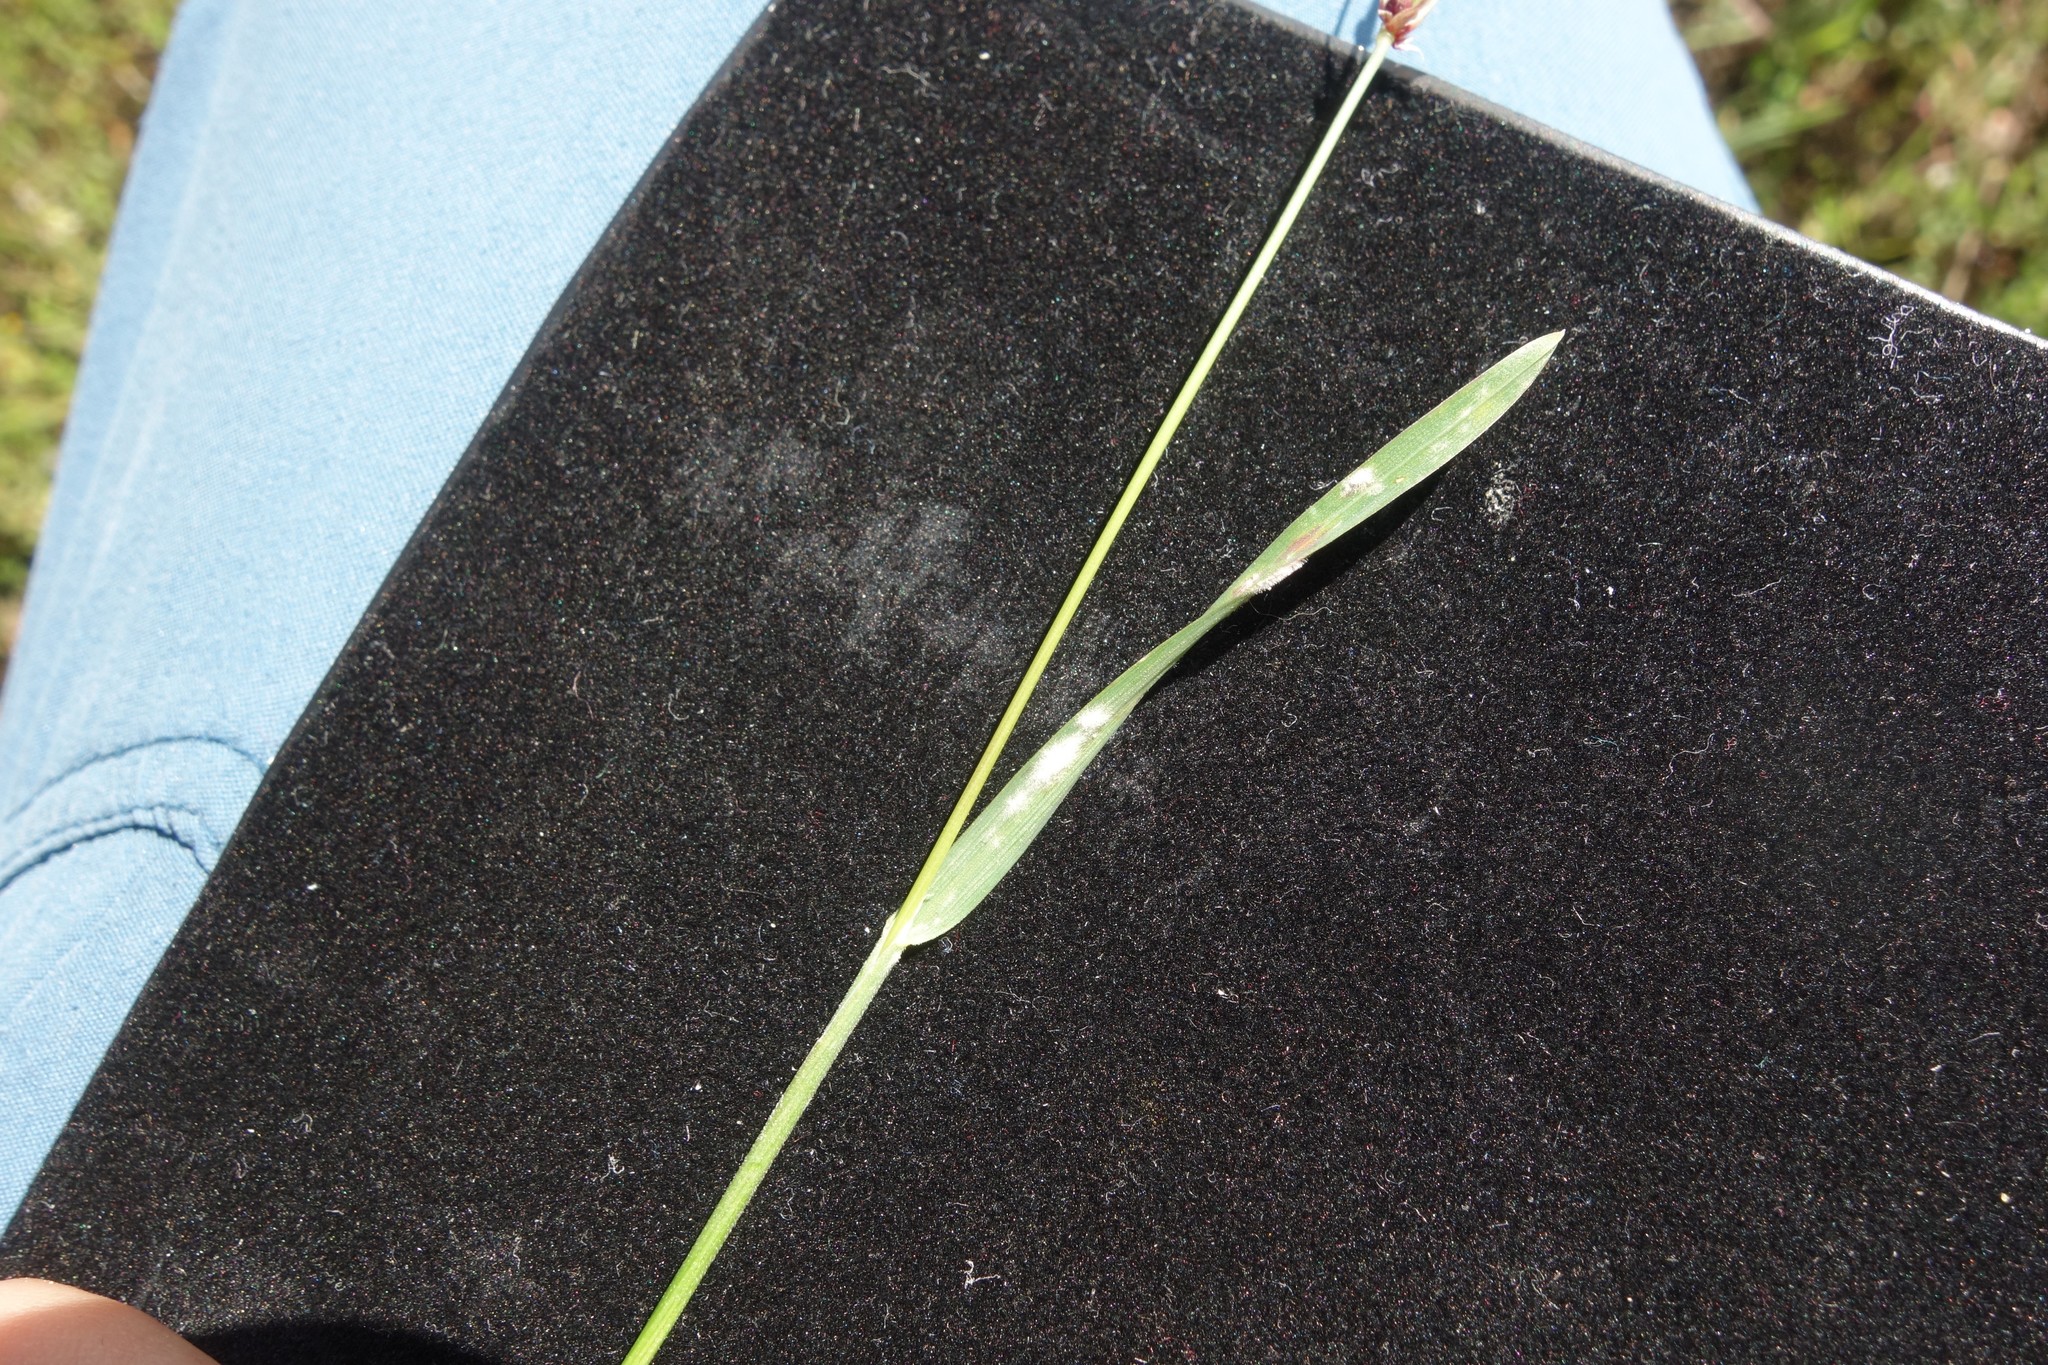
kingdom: Plantae
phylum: Tracheophyta
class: Liliopsida
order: Poales
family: Poaceae
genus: Poa
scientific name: Poa bulbosa
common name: Bulbous bluegrass
